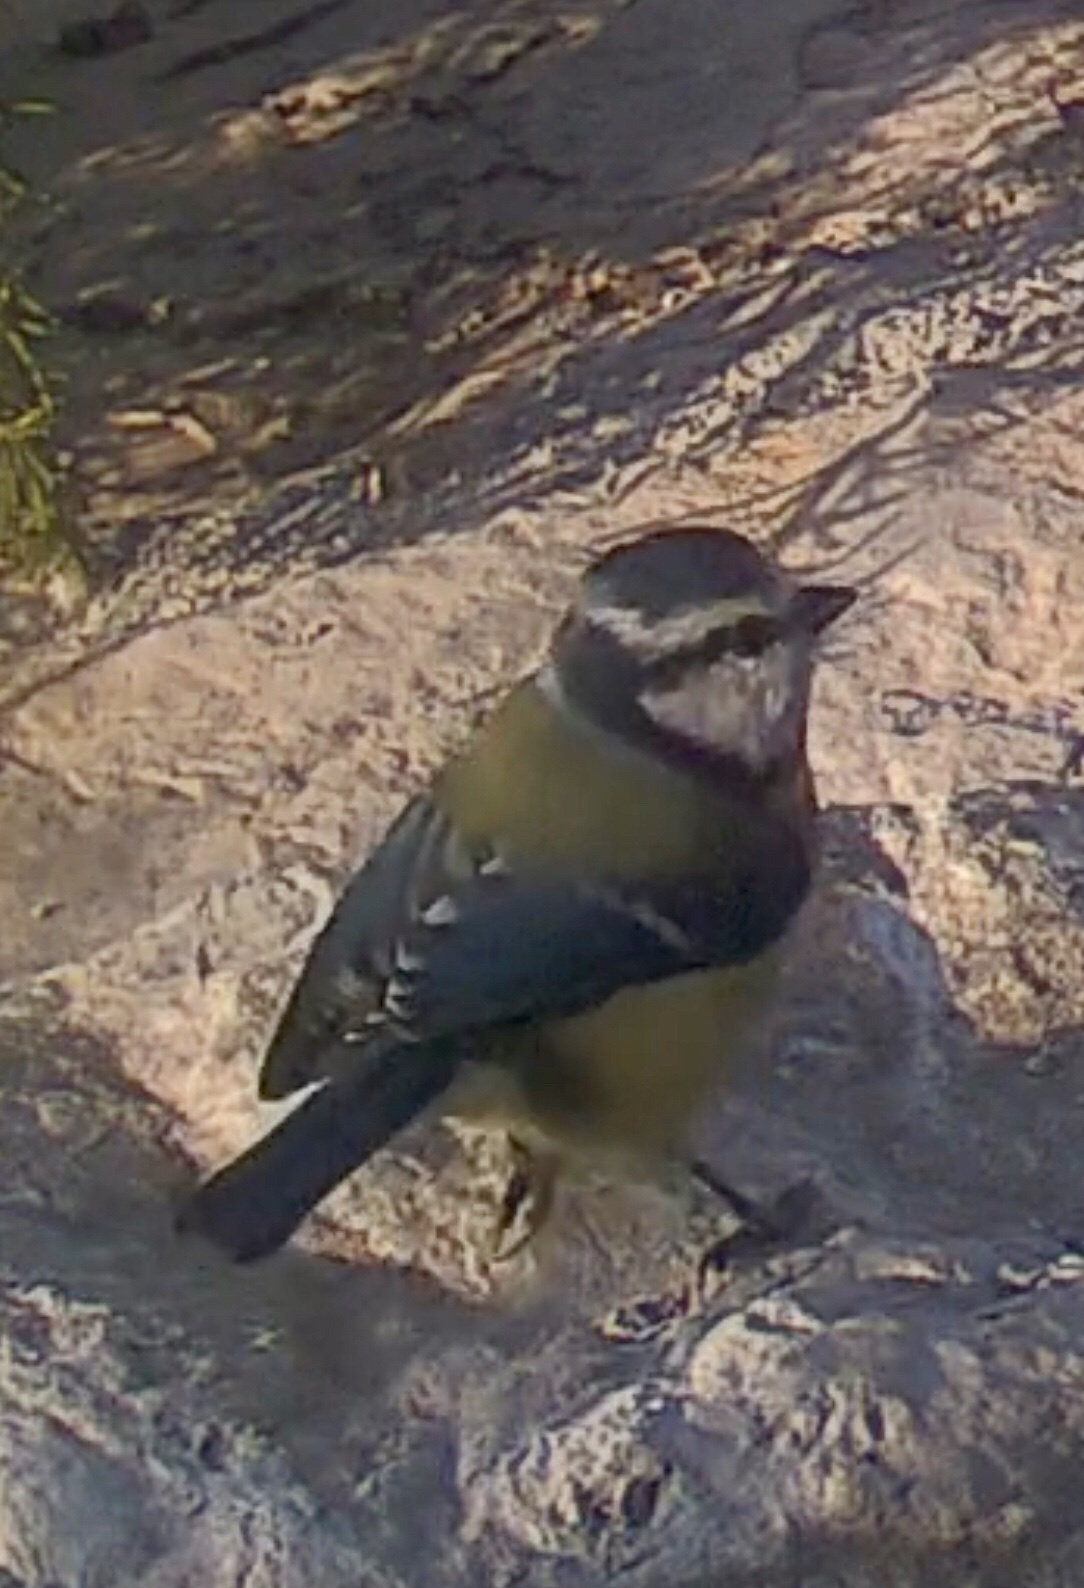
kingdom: Animalia
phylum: Chordata
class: Aves
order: Passeriformes
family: Paridae
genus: Cyanistes
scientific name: Cyanistes caeruleus
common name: Eurasian blue tit
